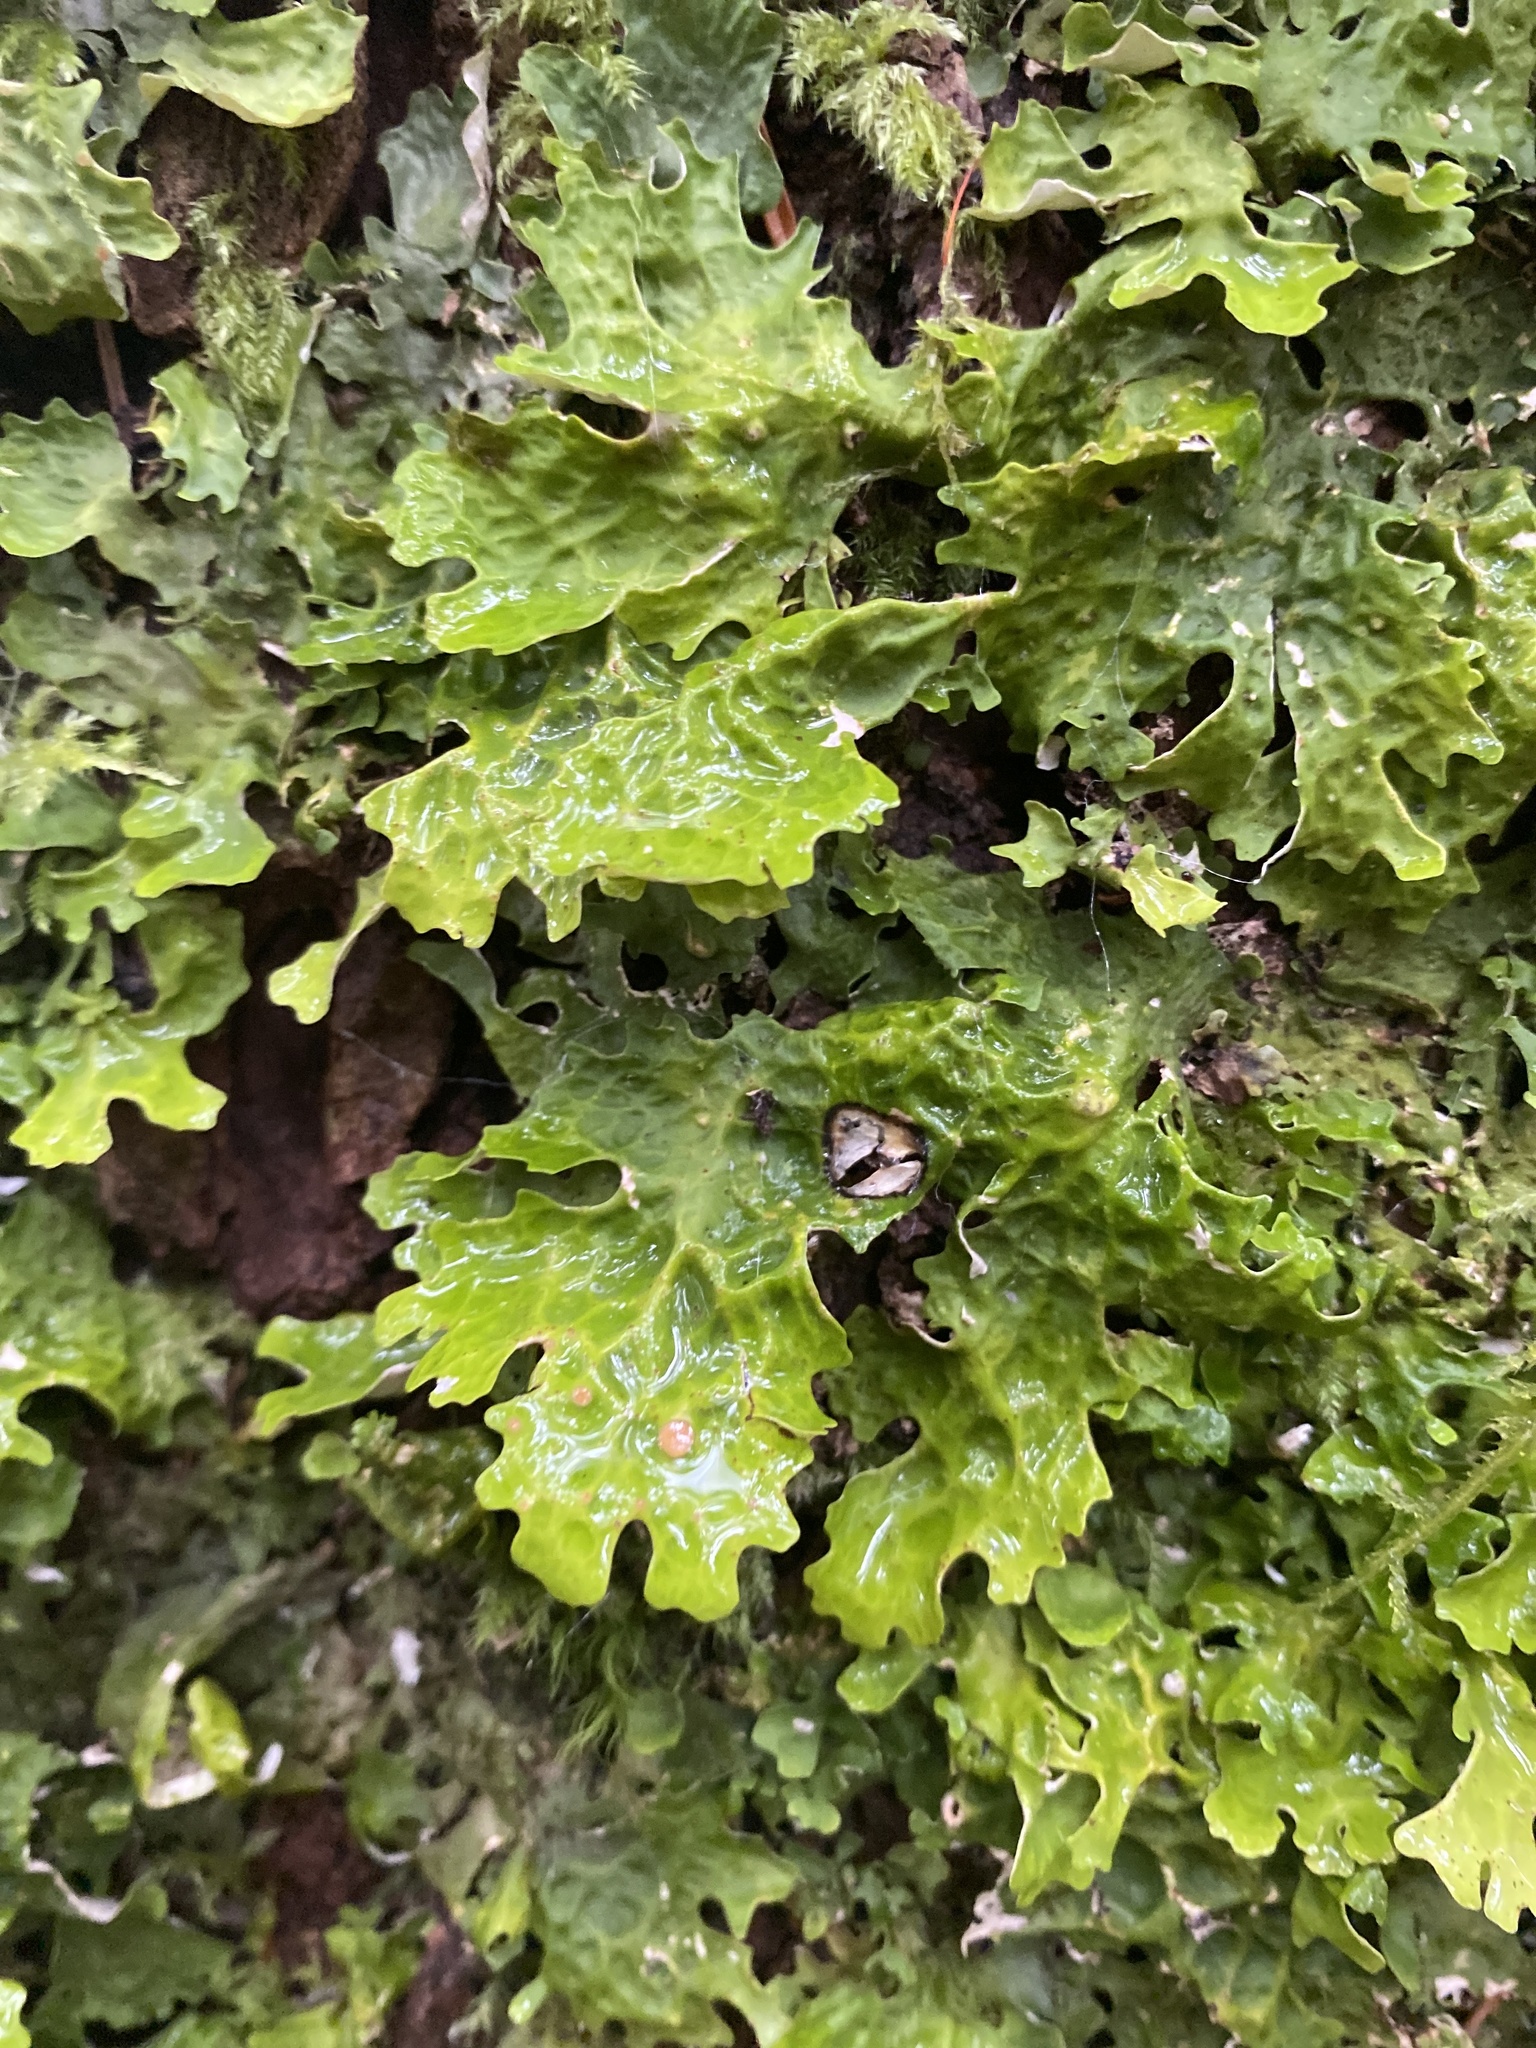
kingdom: Fungi
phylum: Ascomycota
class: Lecanoromycetes
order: Peltigerales
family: Lobariaceae
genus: Lobaria
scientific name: Lobaria pulmonaria
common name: Lungwort
